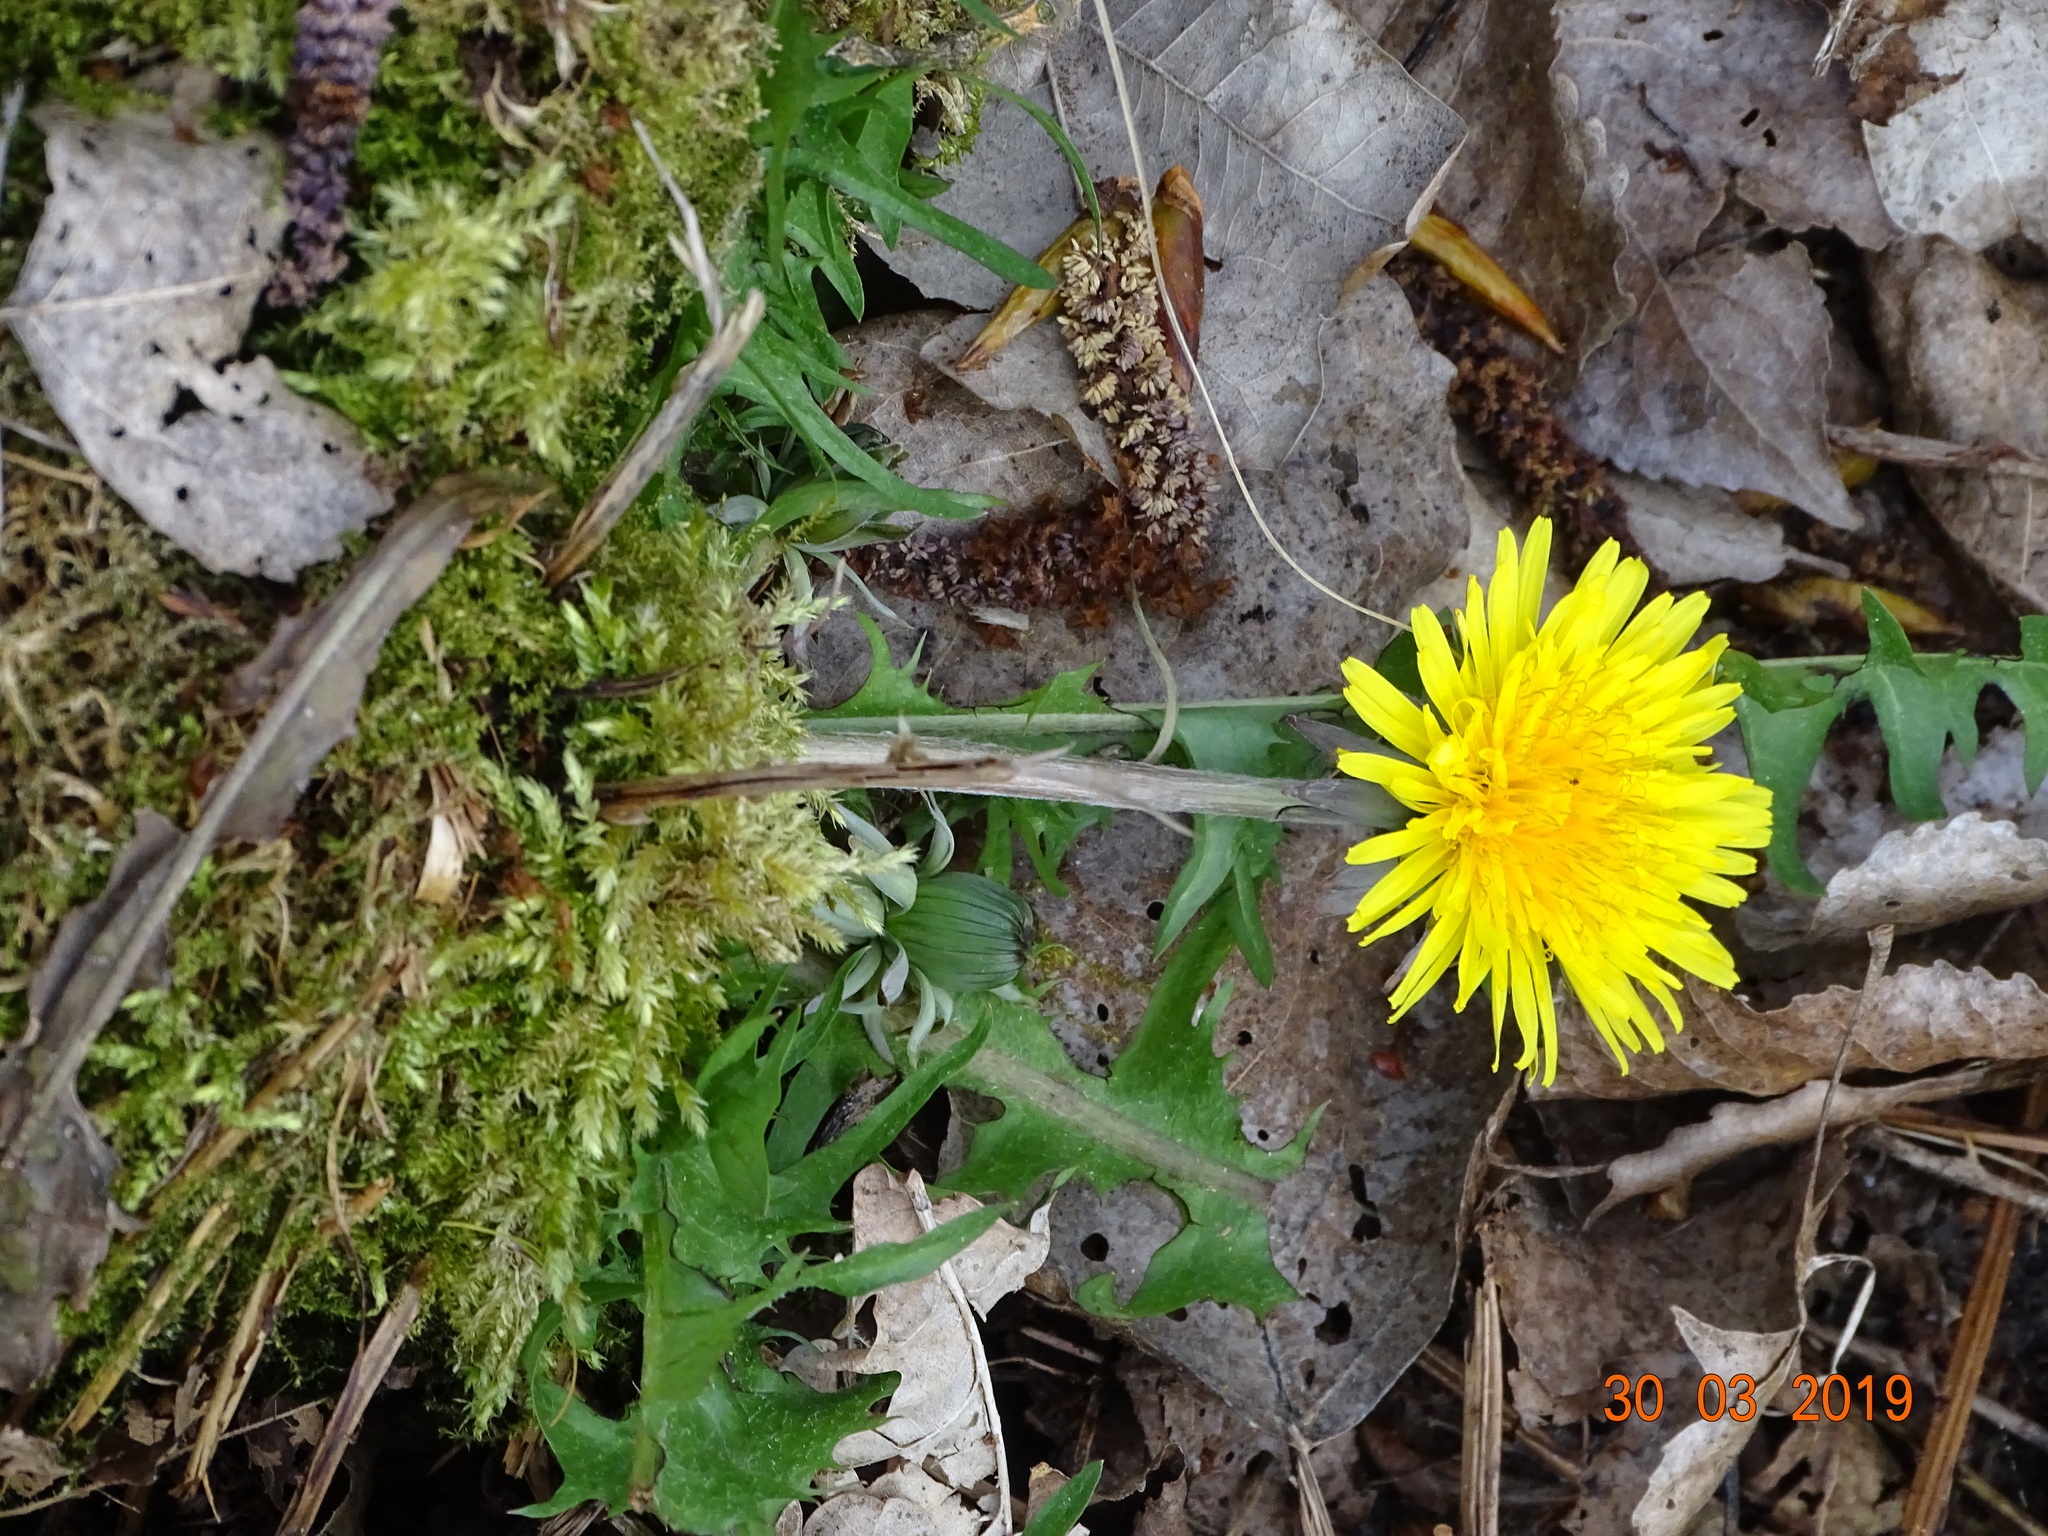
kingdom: Plantae
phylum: Tracheophyta
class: Magnoliopsida
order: Asterales
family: Asteraceae
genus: Taraxacum
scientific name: Taraxacum officinale
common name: Common dandelion
